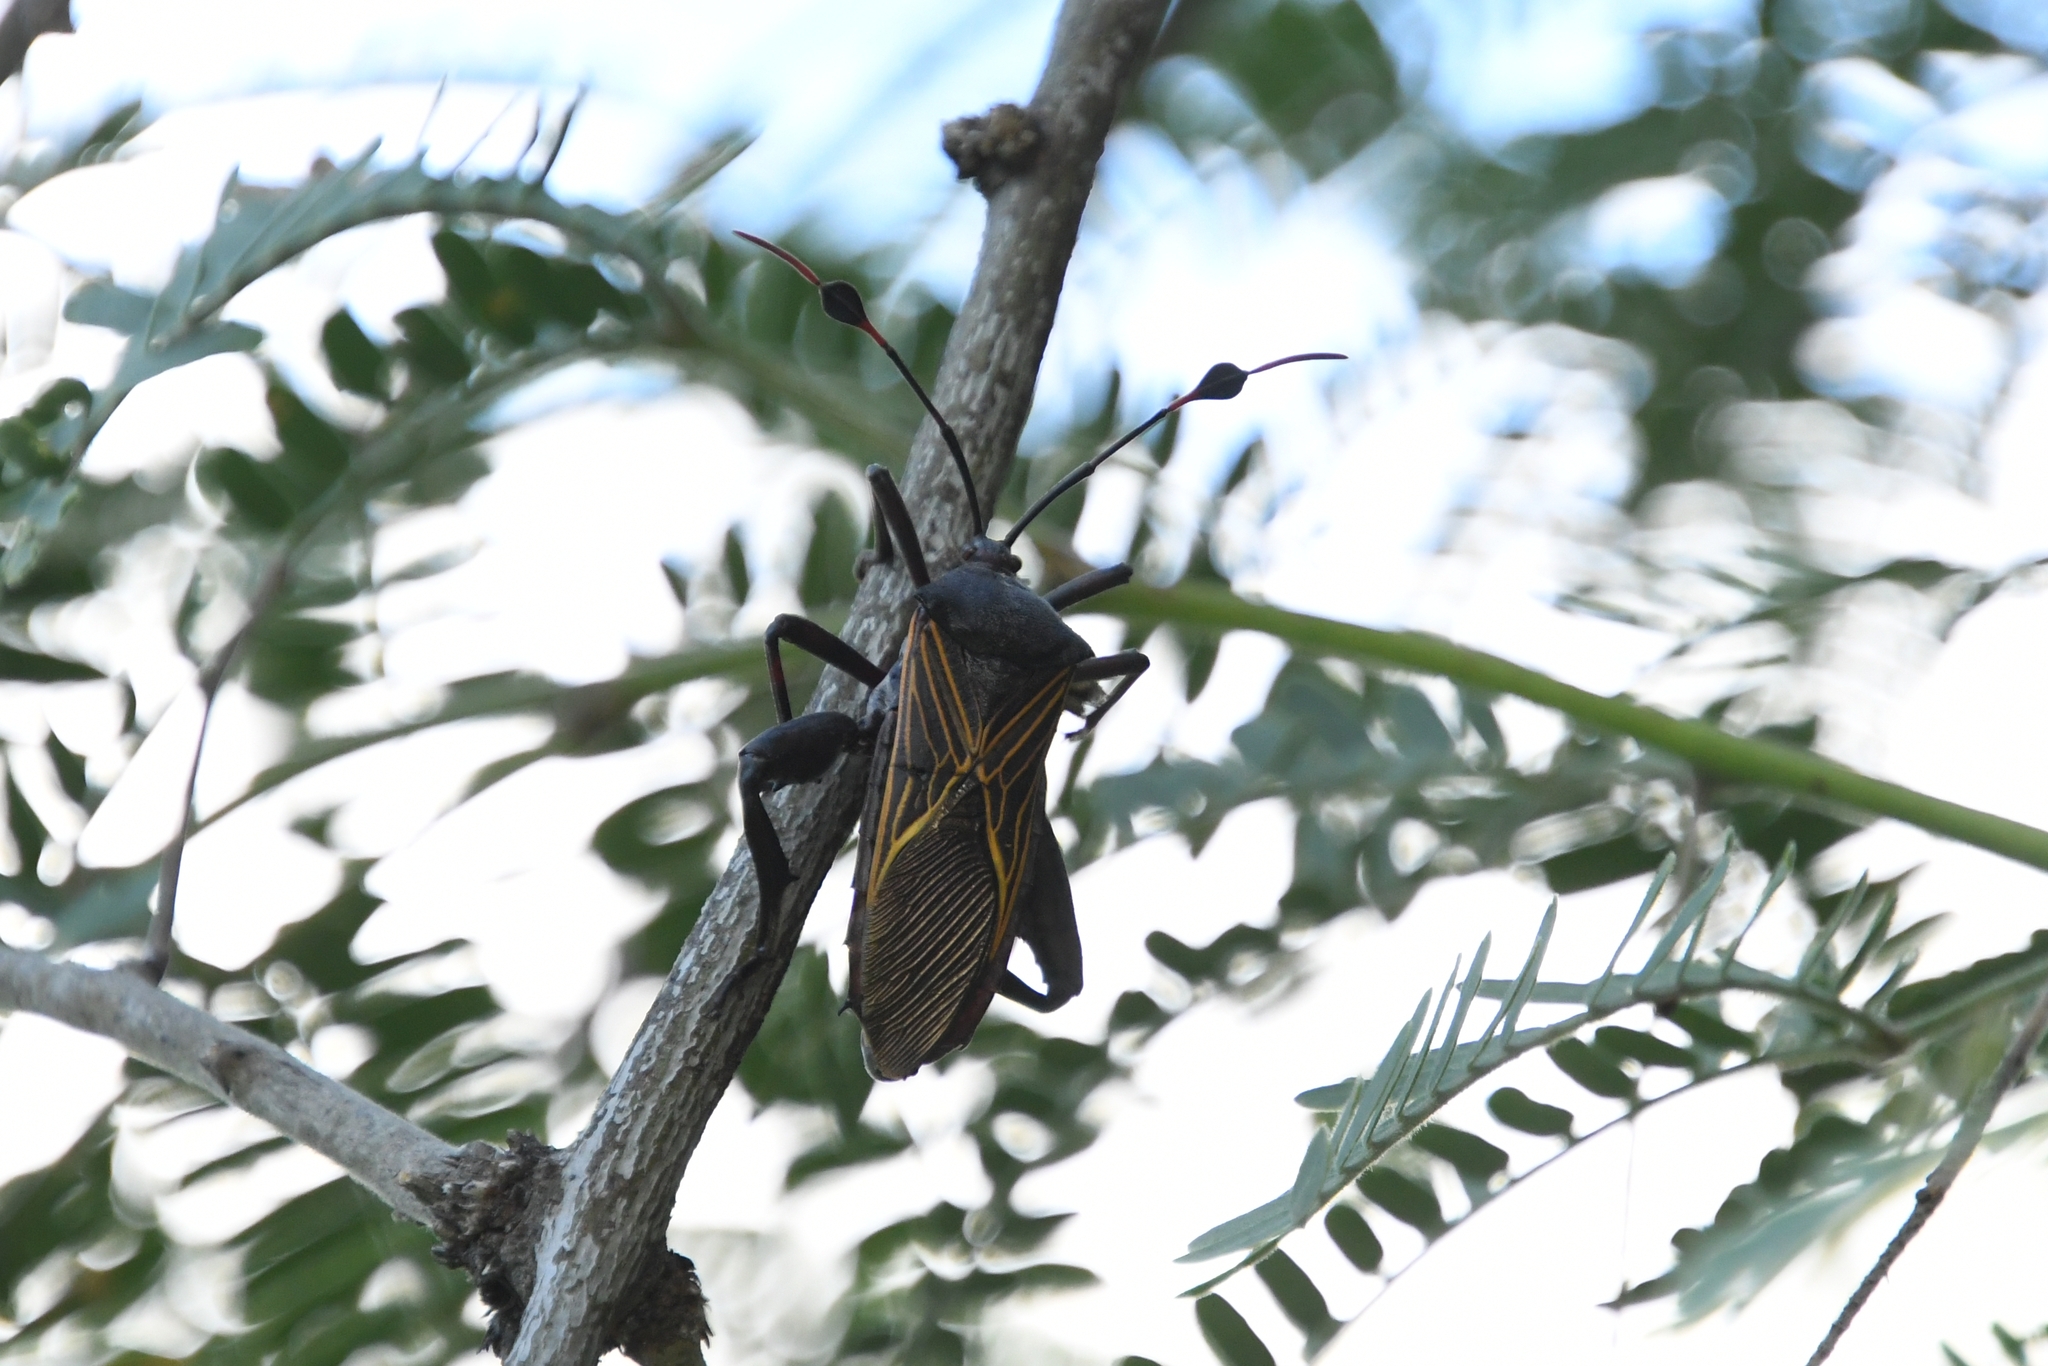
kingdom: Animalia
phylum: Arthropoda
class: Insecta
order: Hemiptera
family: Coreidae
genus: Thasus
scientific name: Thasus neocalifornicus
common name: Giant mesquite bug
